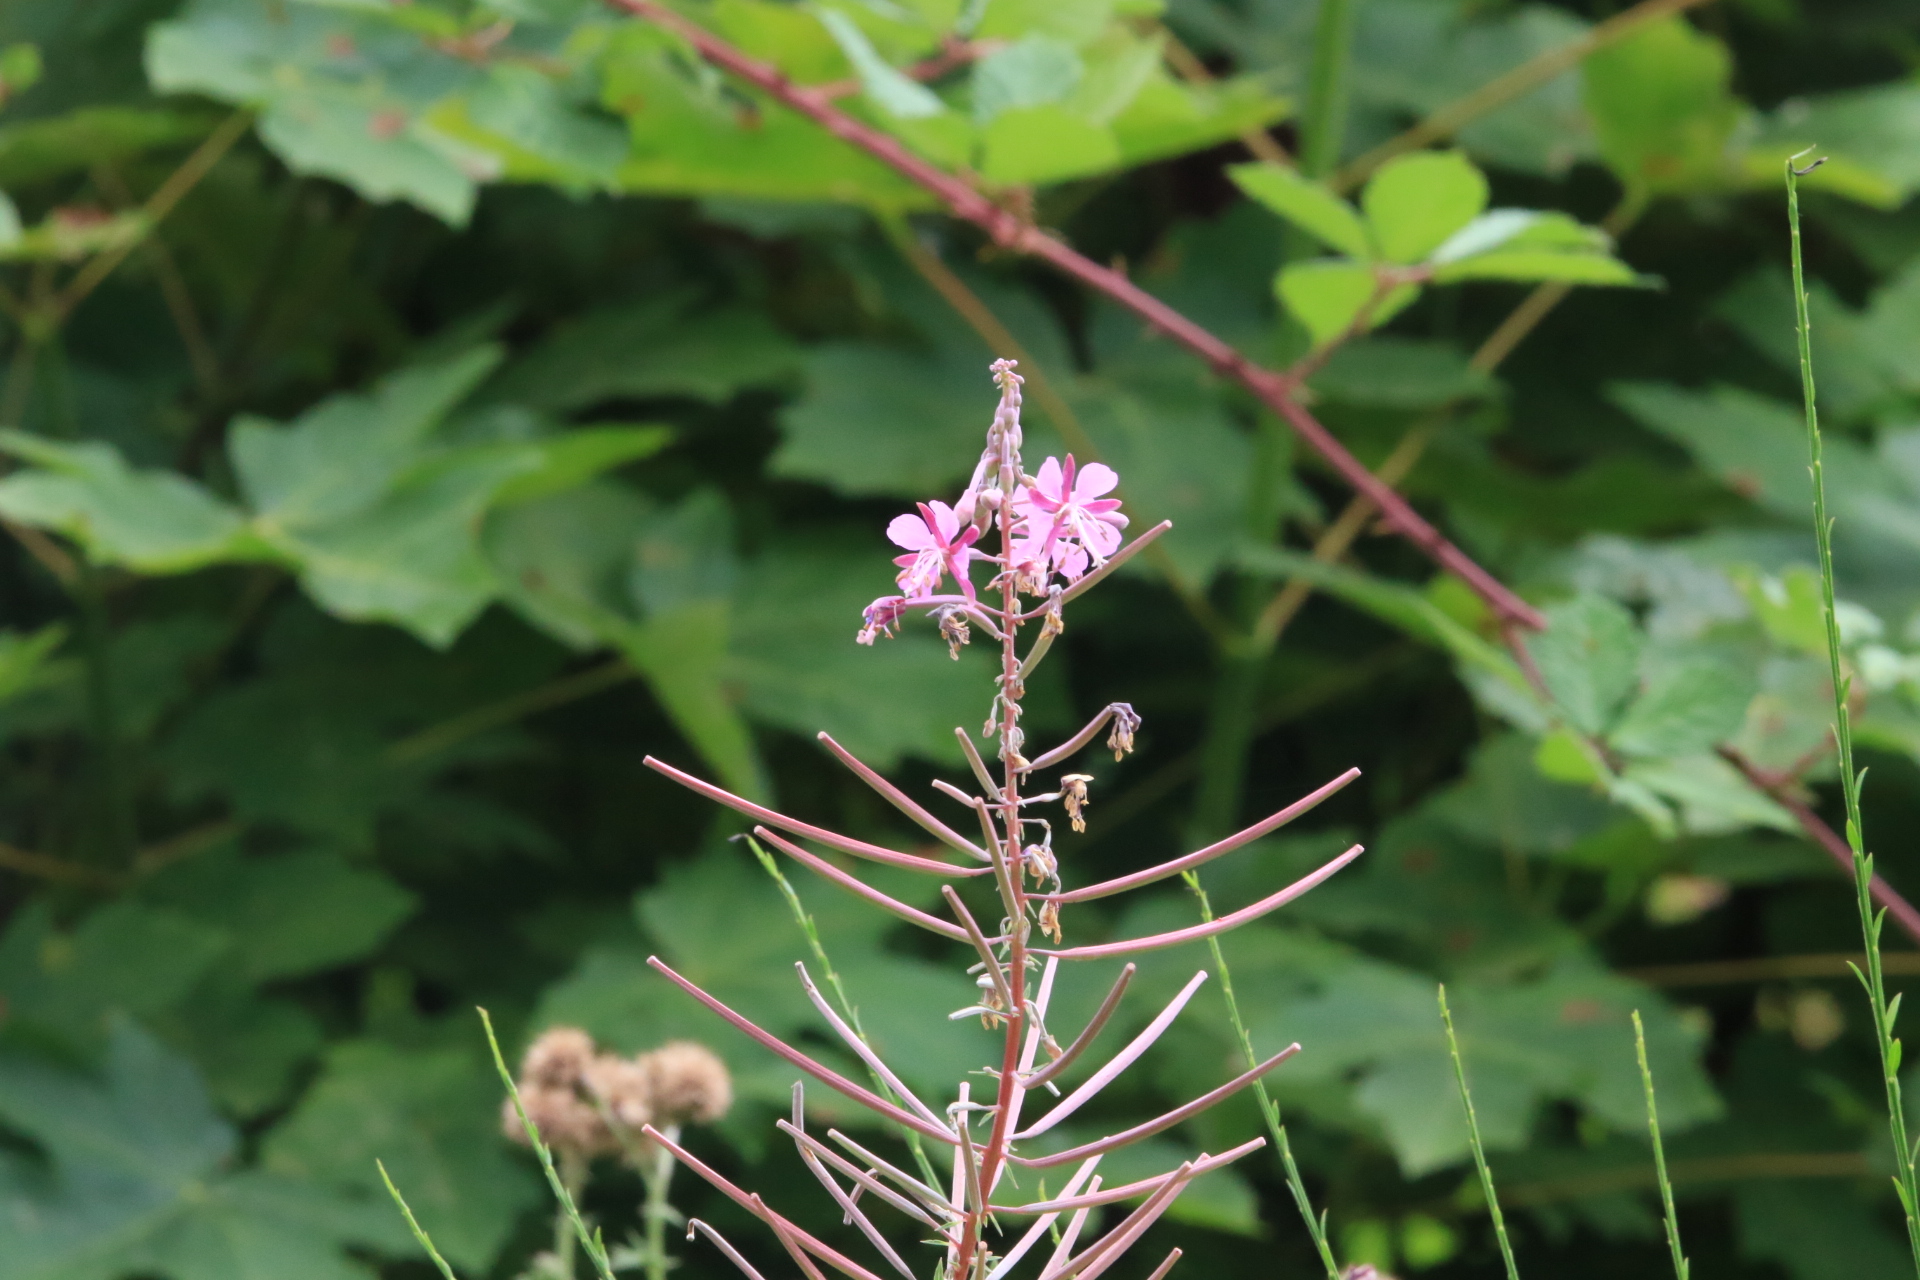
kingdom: Plantae
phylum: Tracheophyta
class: Magnoliopsida
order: Myrtales
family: Onagraceae
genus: Chamaenerion
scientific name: Chamaenerion angustifolium
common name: Fireweed
